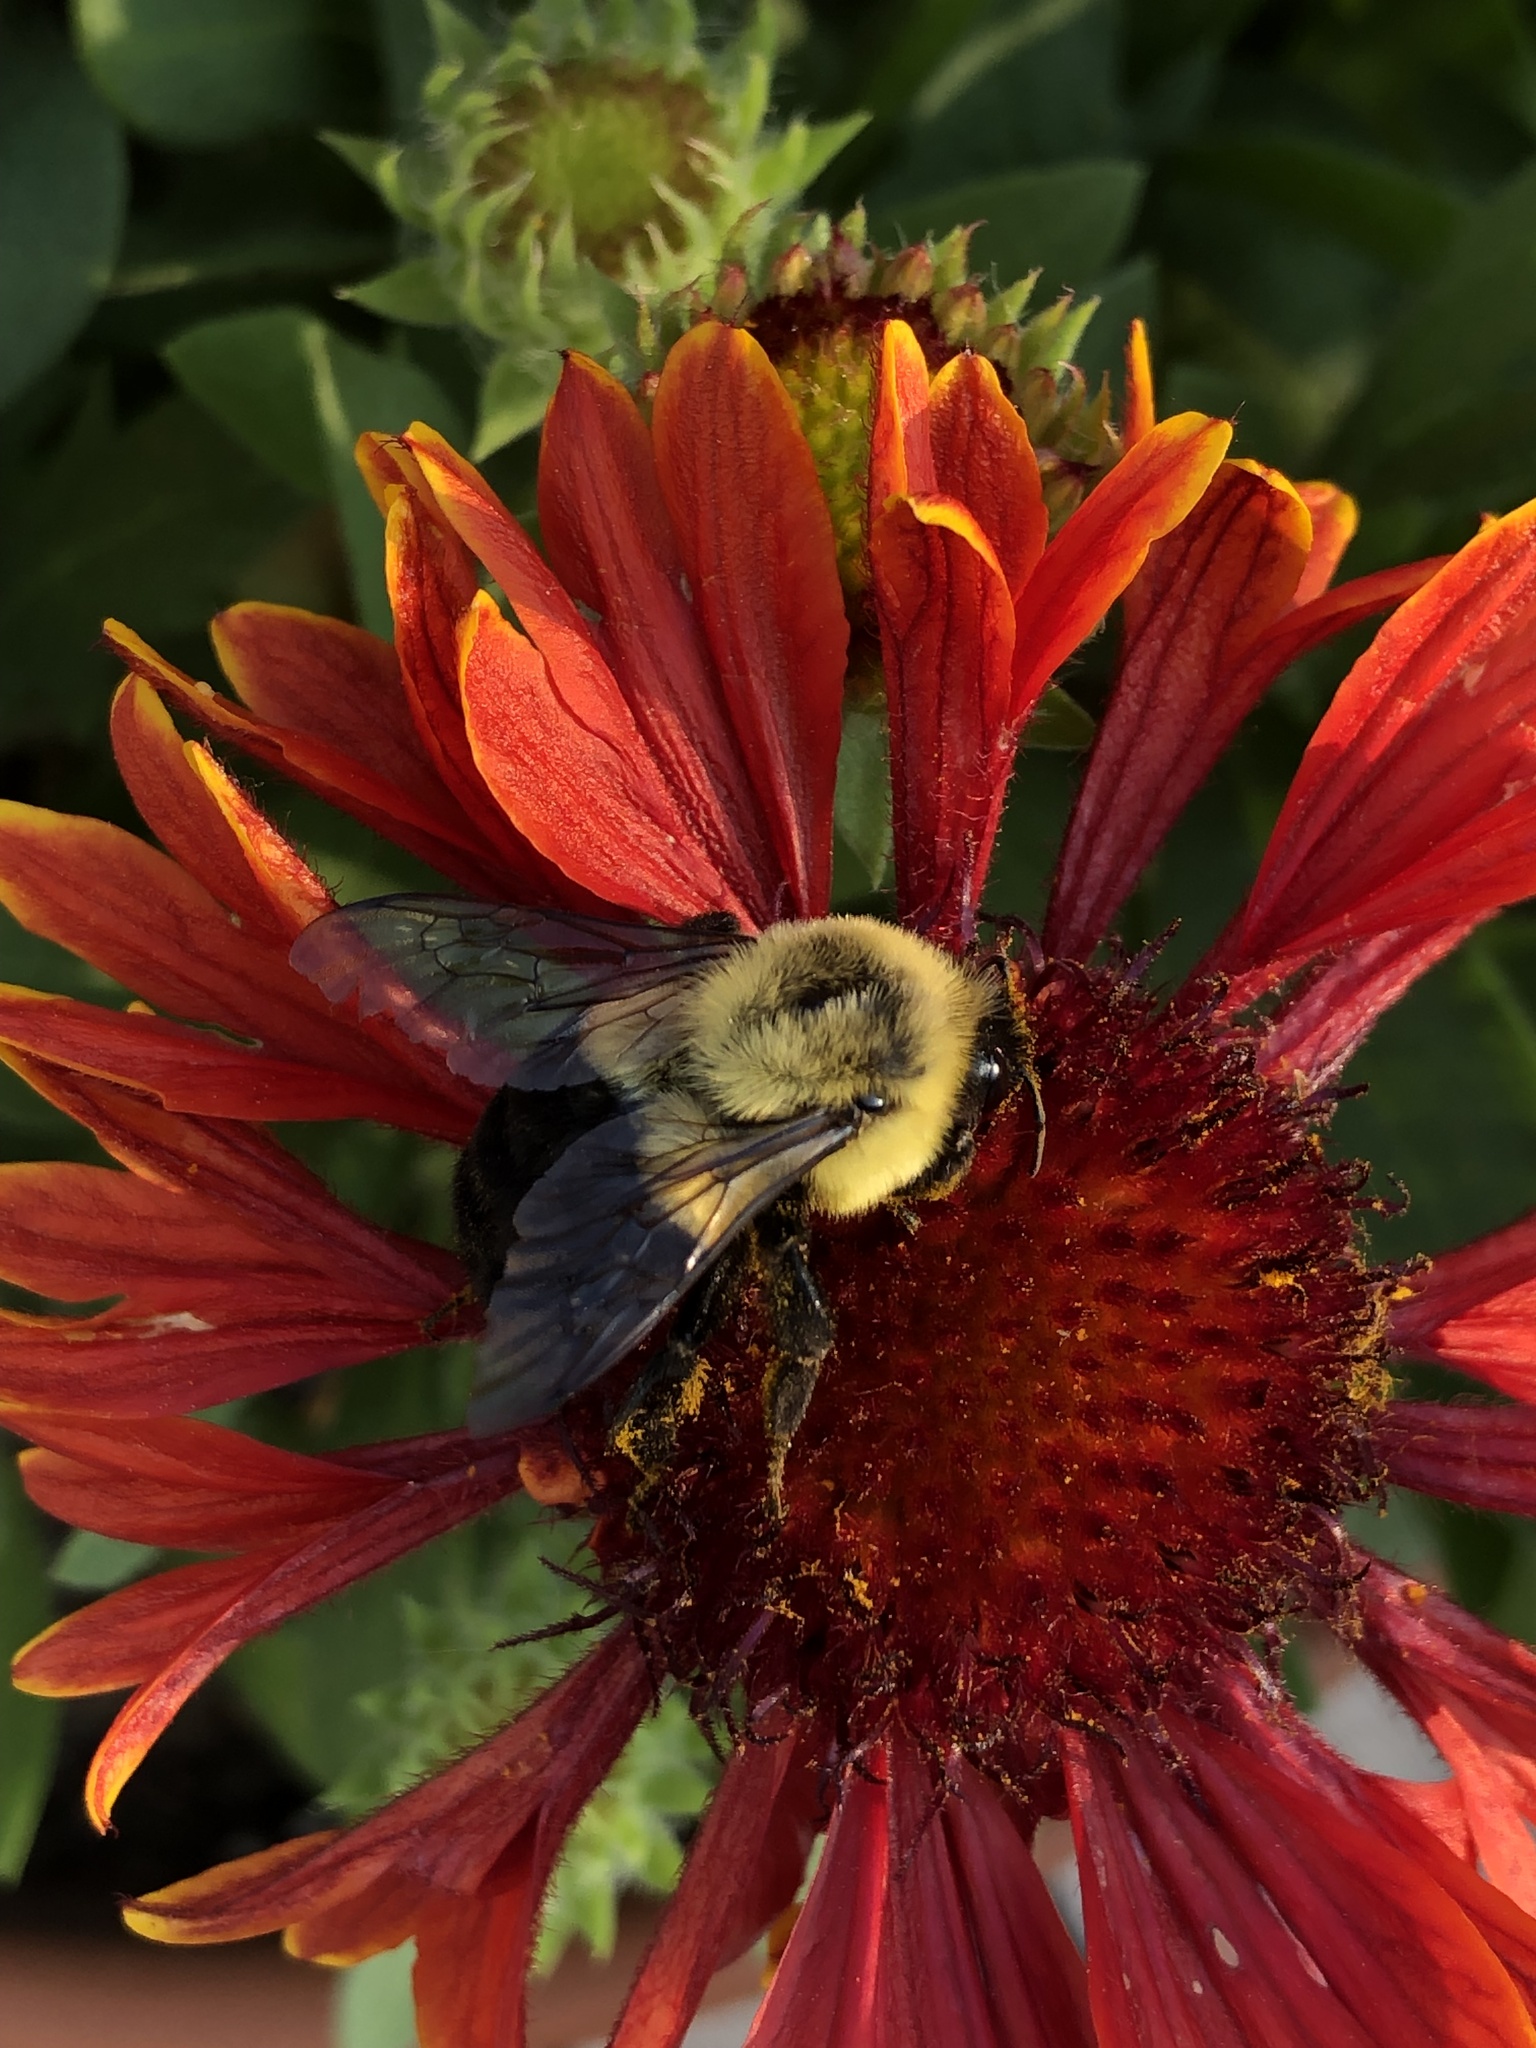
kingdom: Animalia
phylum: Arthropoda
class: Insecta
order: Hymenoptera
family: Apidae
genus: Bombus
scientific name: Bombus impatiens
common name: Common eastern bumble bee
